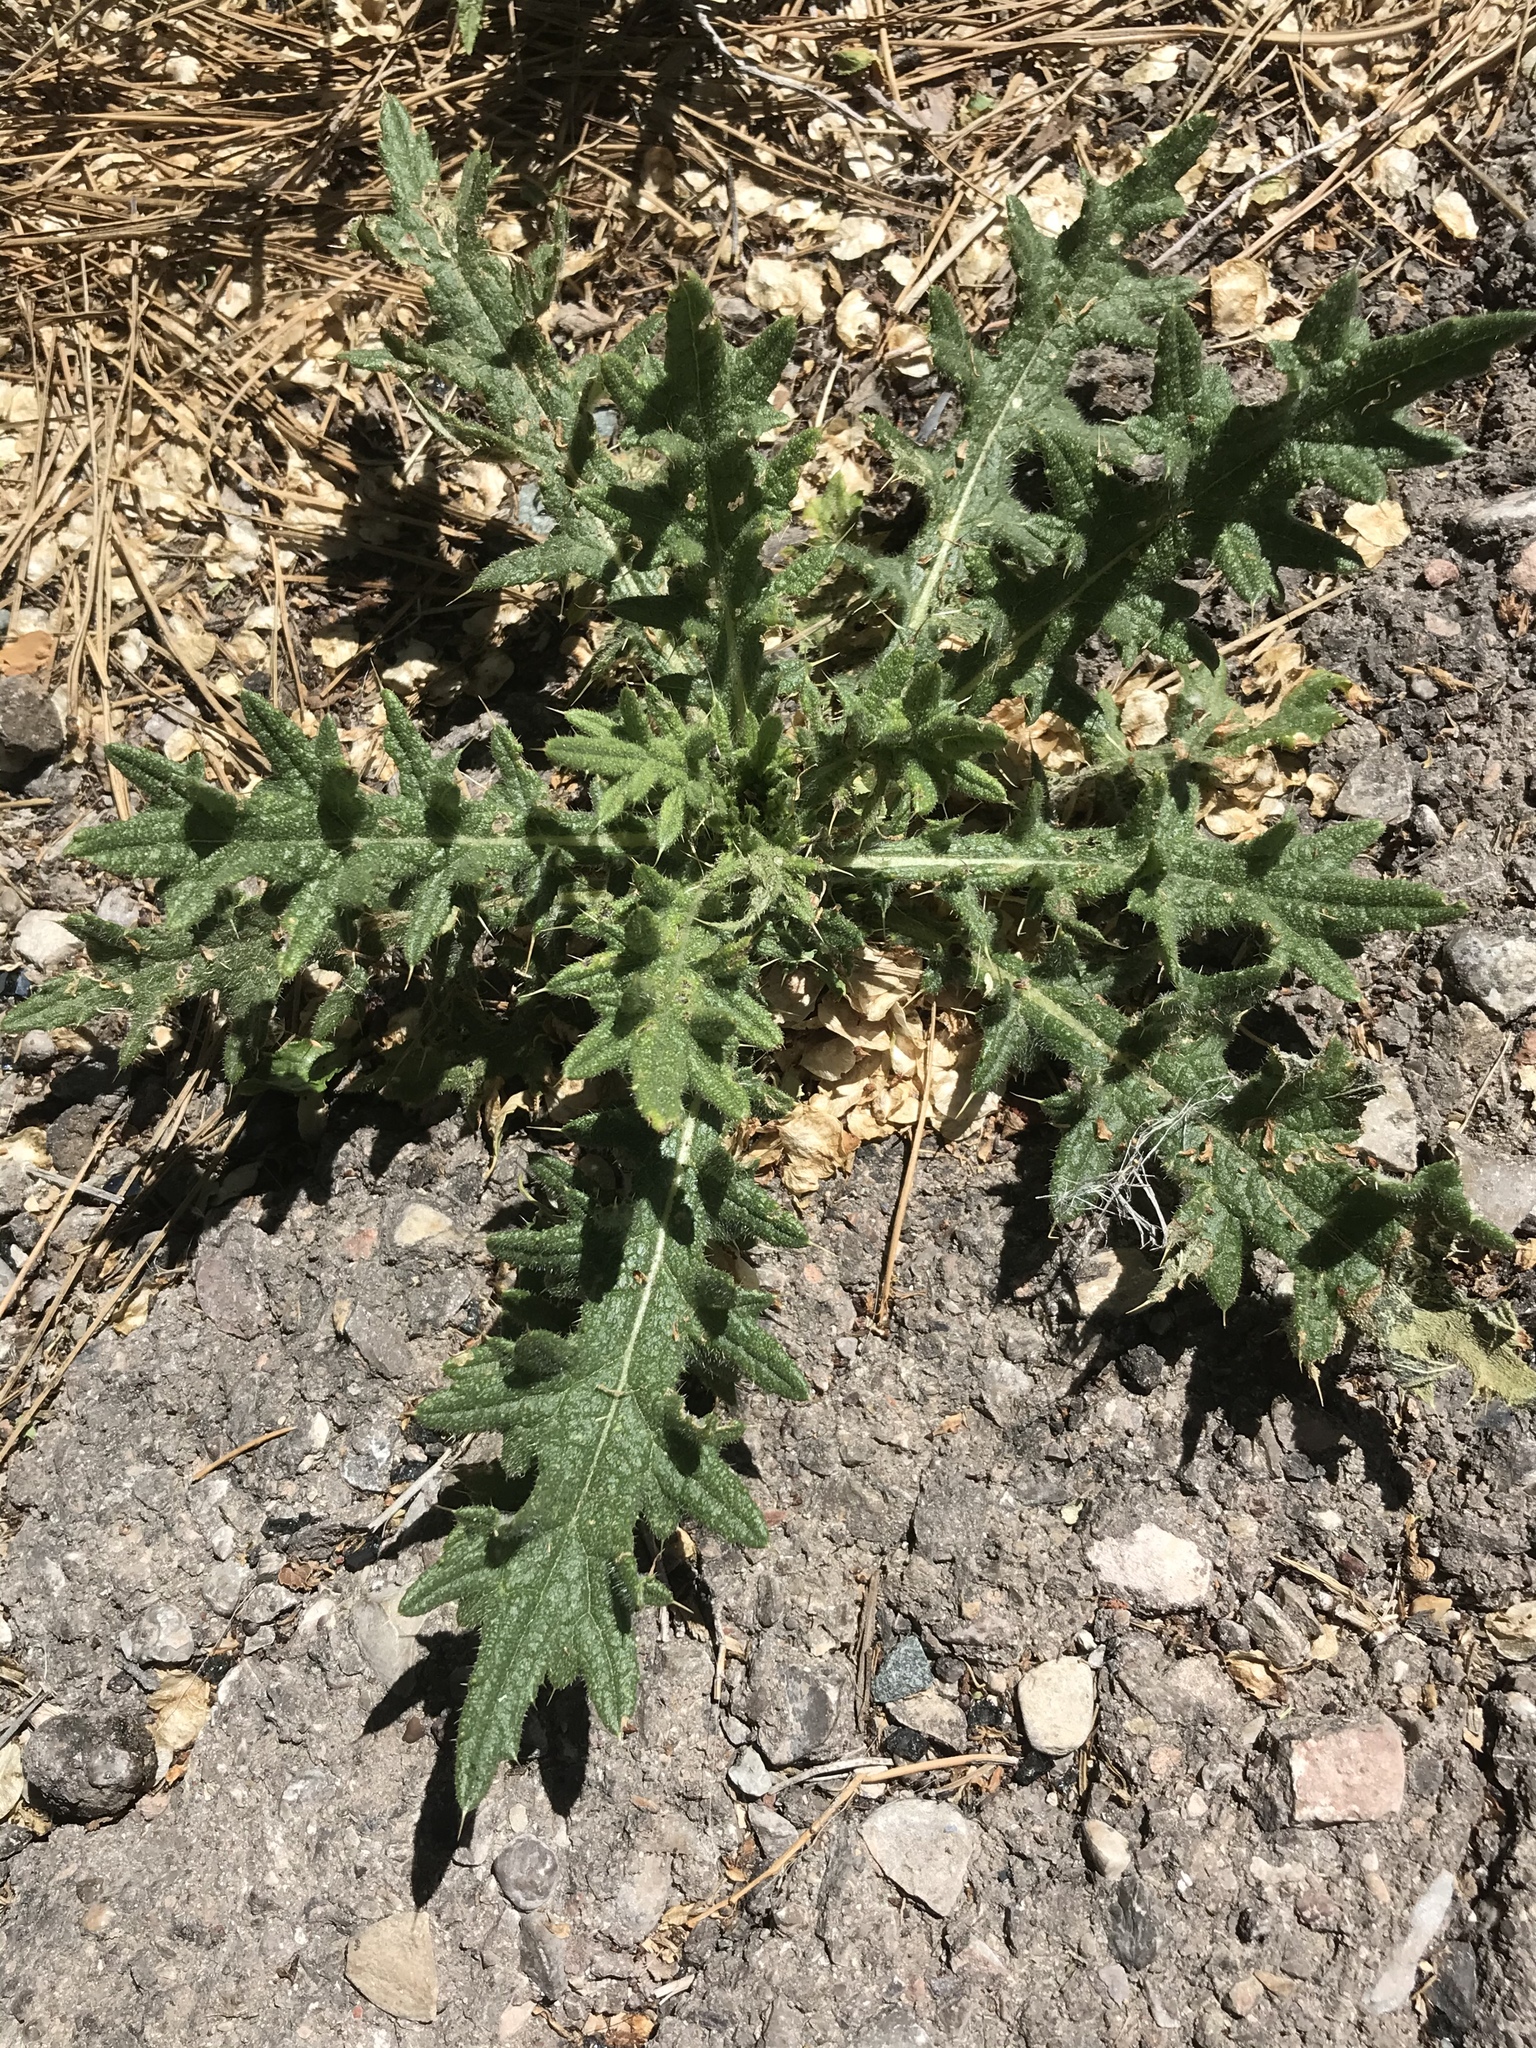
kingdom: Plantae
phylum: Tracheophyta
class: Magnoliopsida
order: Asterales
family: Asteraceae
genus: Cirsium
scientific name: Cirsium vulgare
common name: Bull thistle
